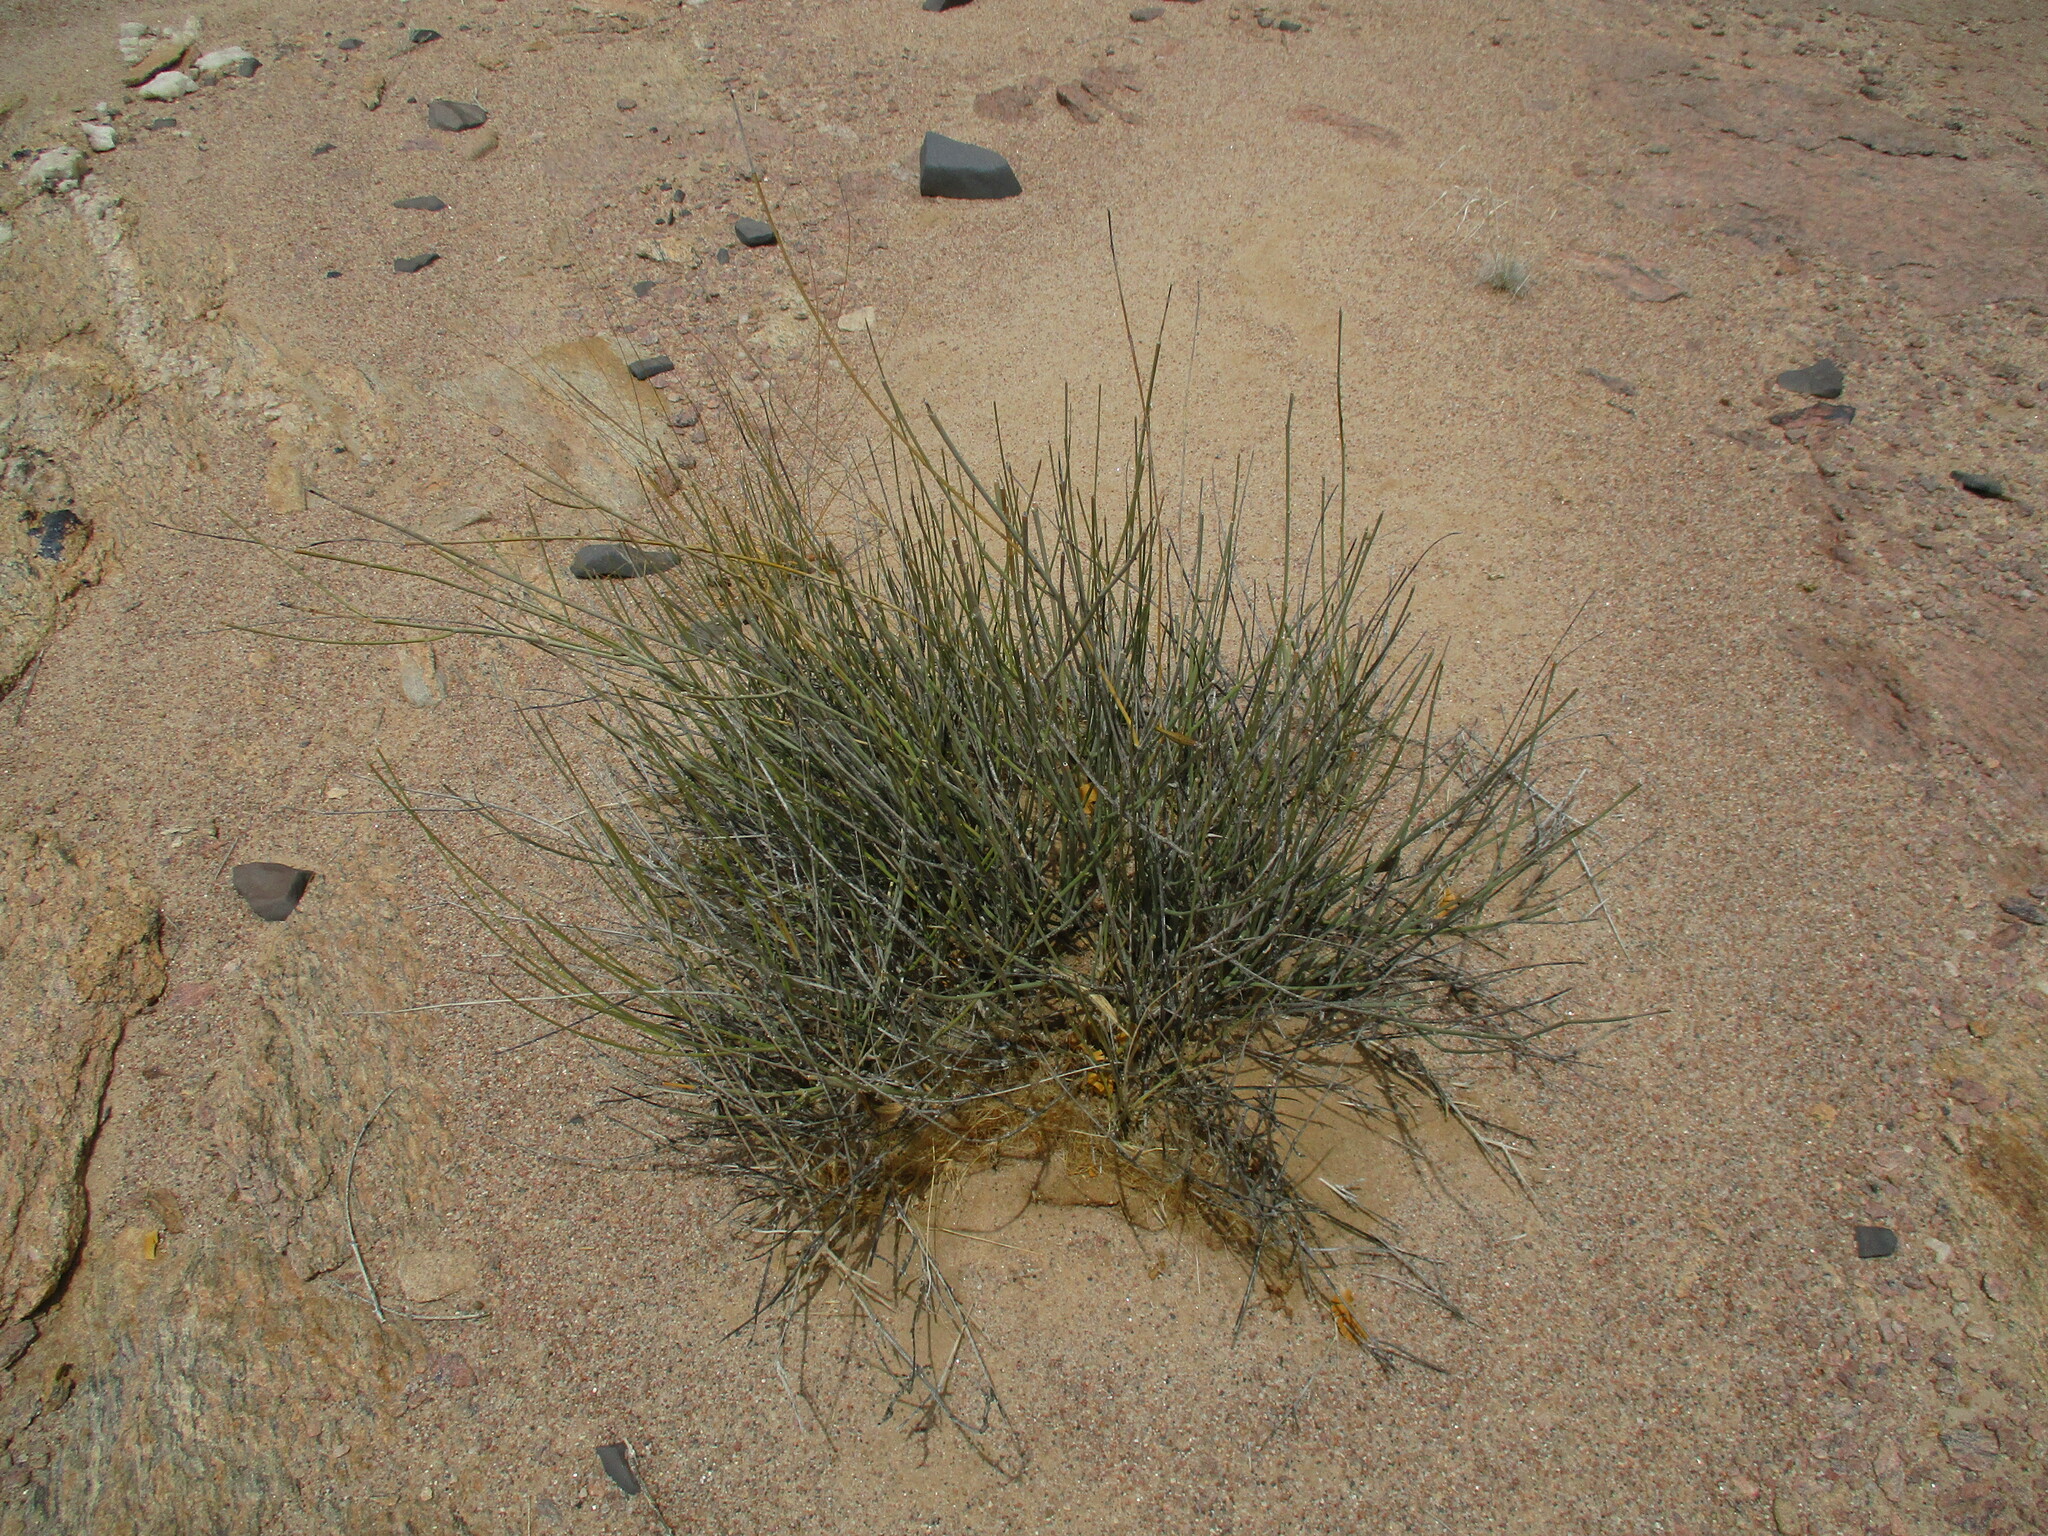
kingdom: Plantae
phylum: Tracheophyta
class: Magnoliopsida
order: Gentianales
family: Apocynaceae
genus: Orthanthera
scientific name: Orthanthera albida
